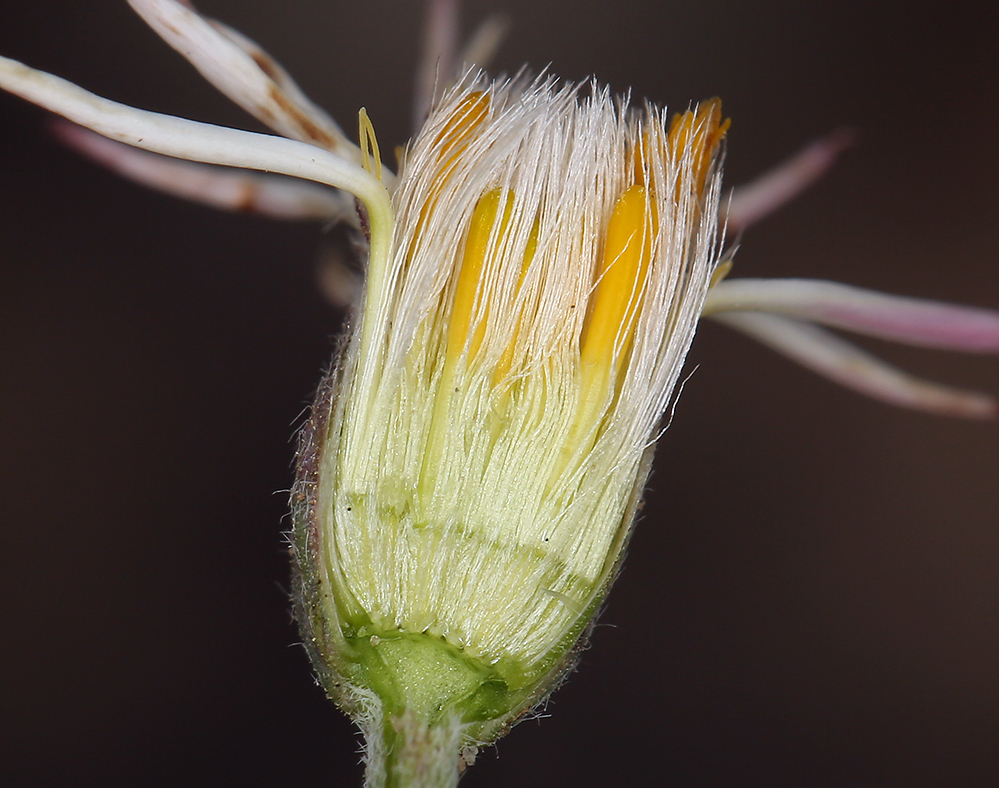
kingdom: Plantae
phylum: Tracheophyta
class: Magnoliopsida
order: Asterales
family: Asteraceae
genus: Chaetopappa
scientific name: Chaetopappa ericoides
